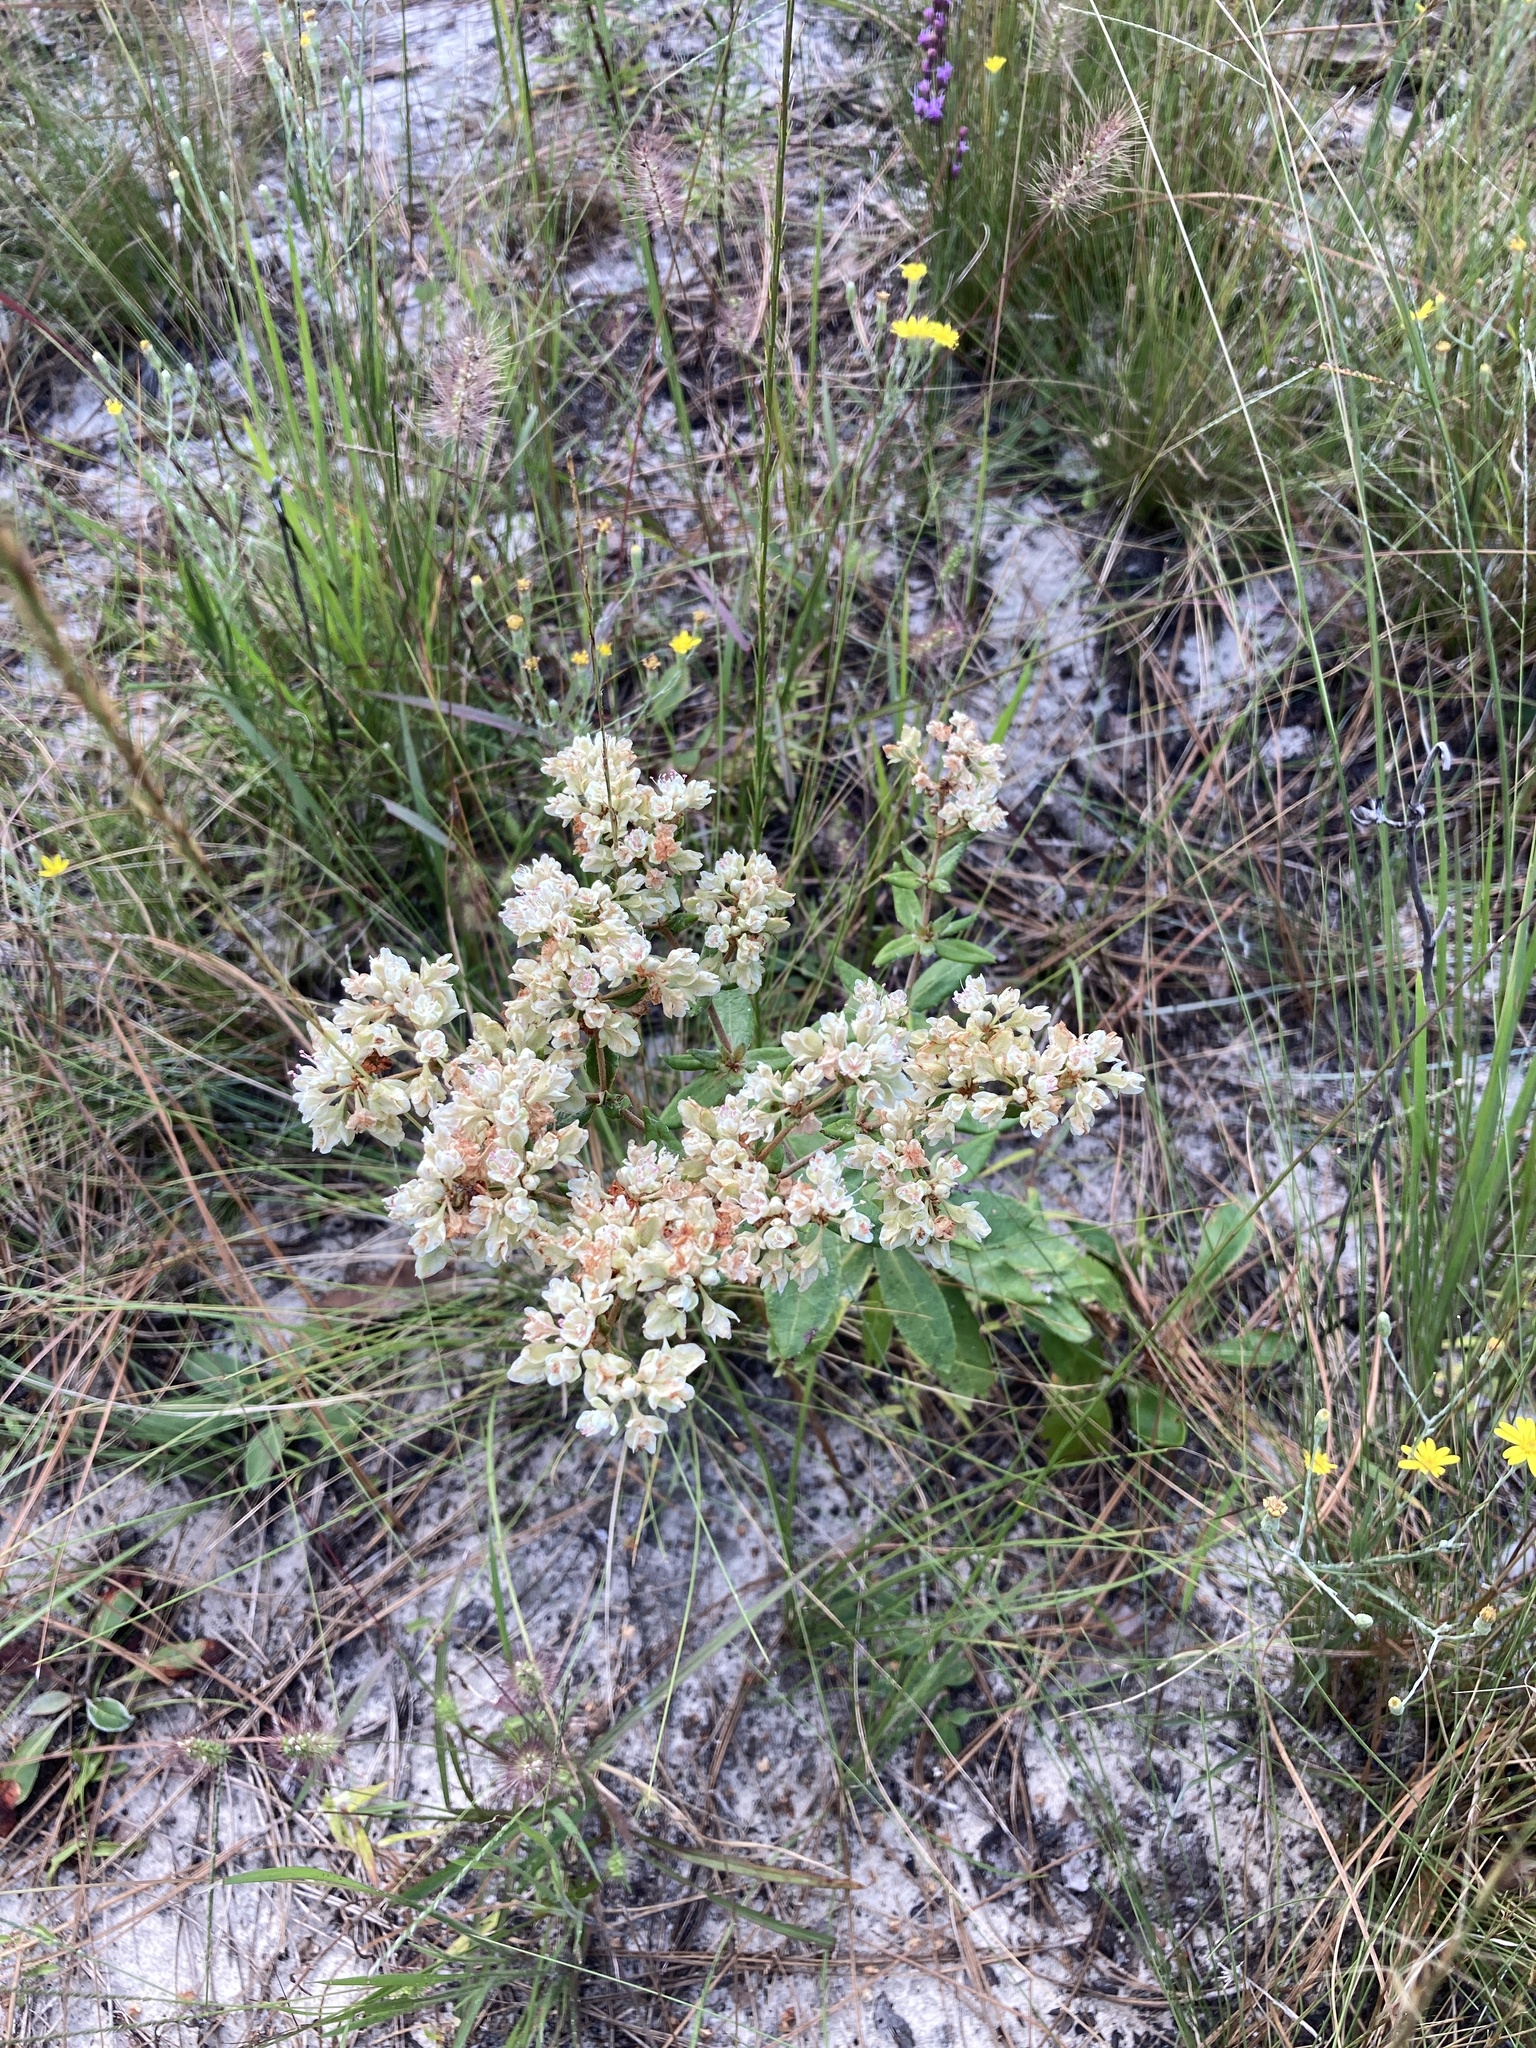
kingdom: Plantae
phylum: Tracheophyta
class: Magnoliopsida
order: Caryophyllales
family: Polygonaceae
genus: Eriogonum
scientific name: Eriogonum tomentosum
